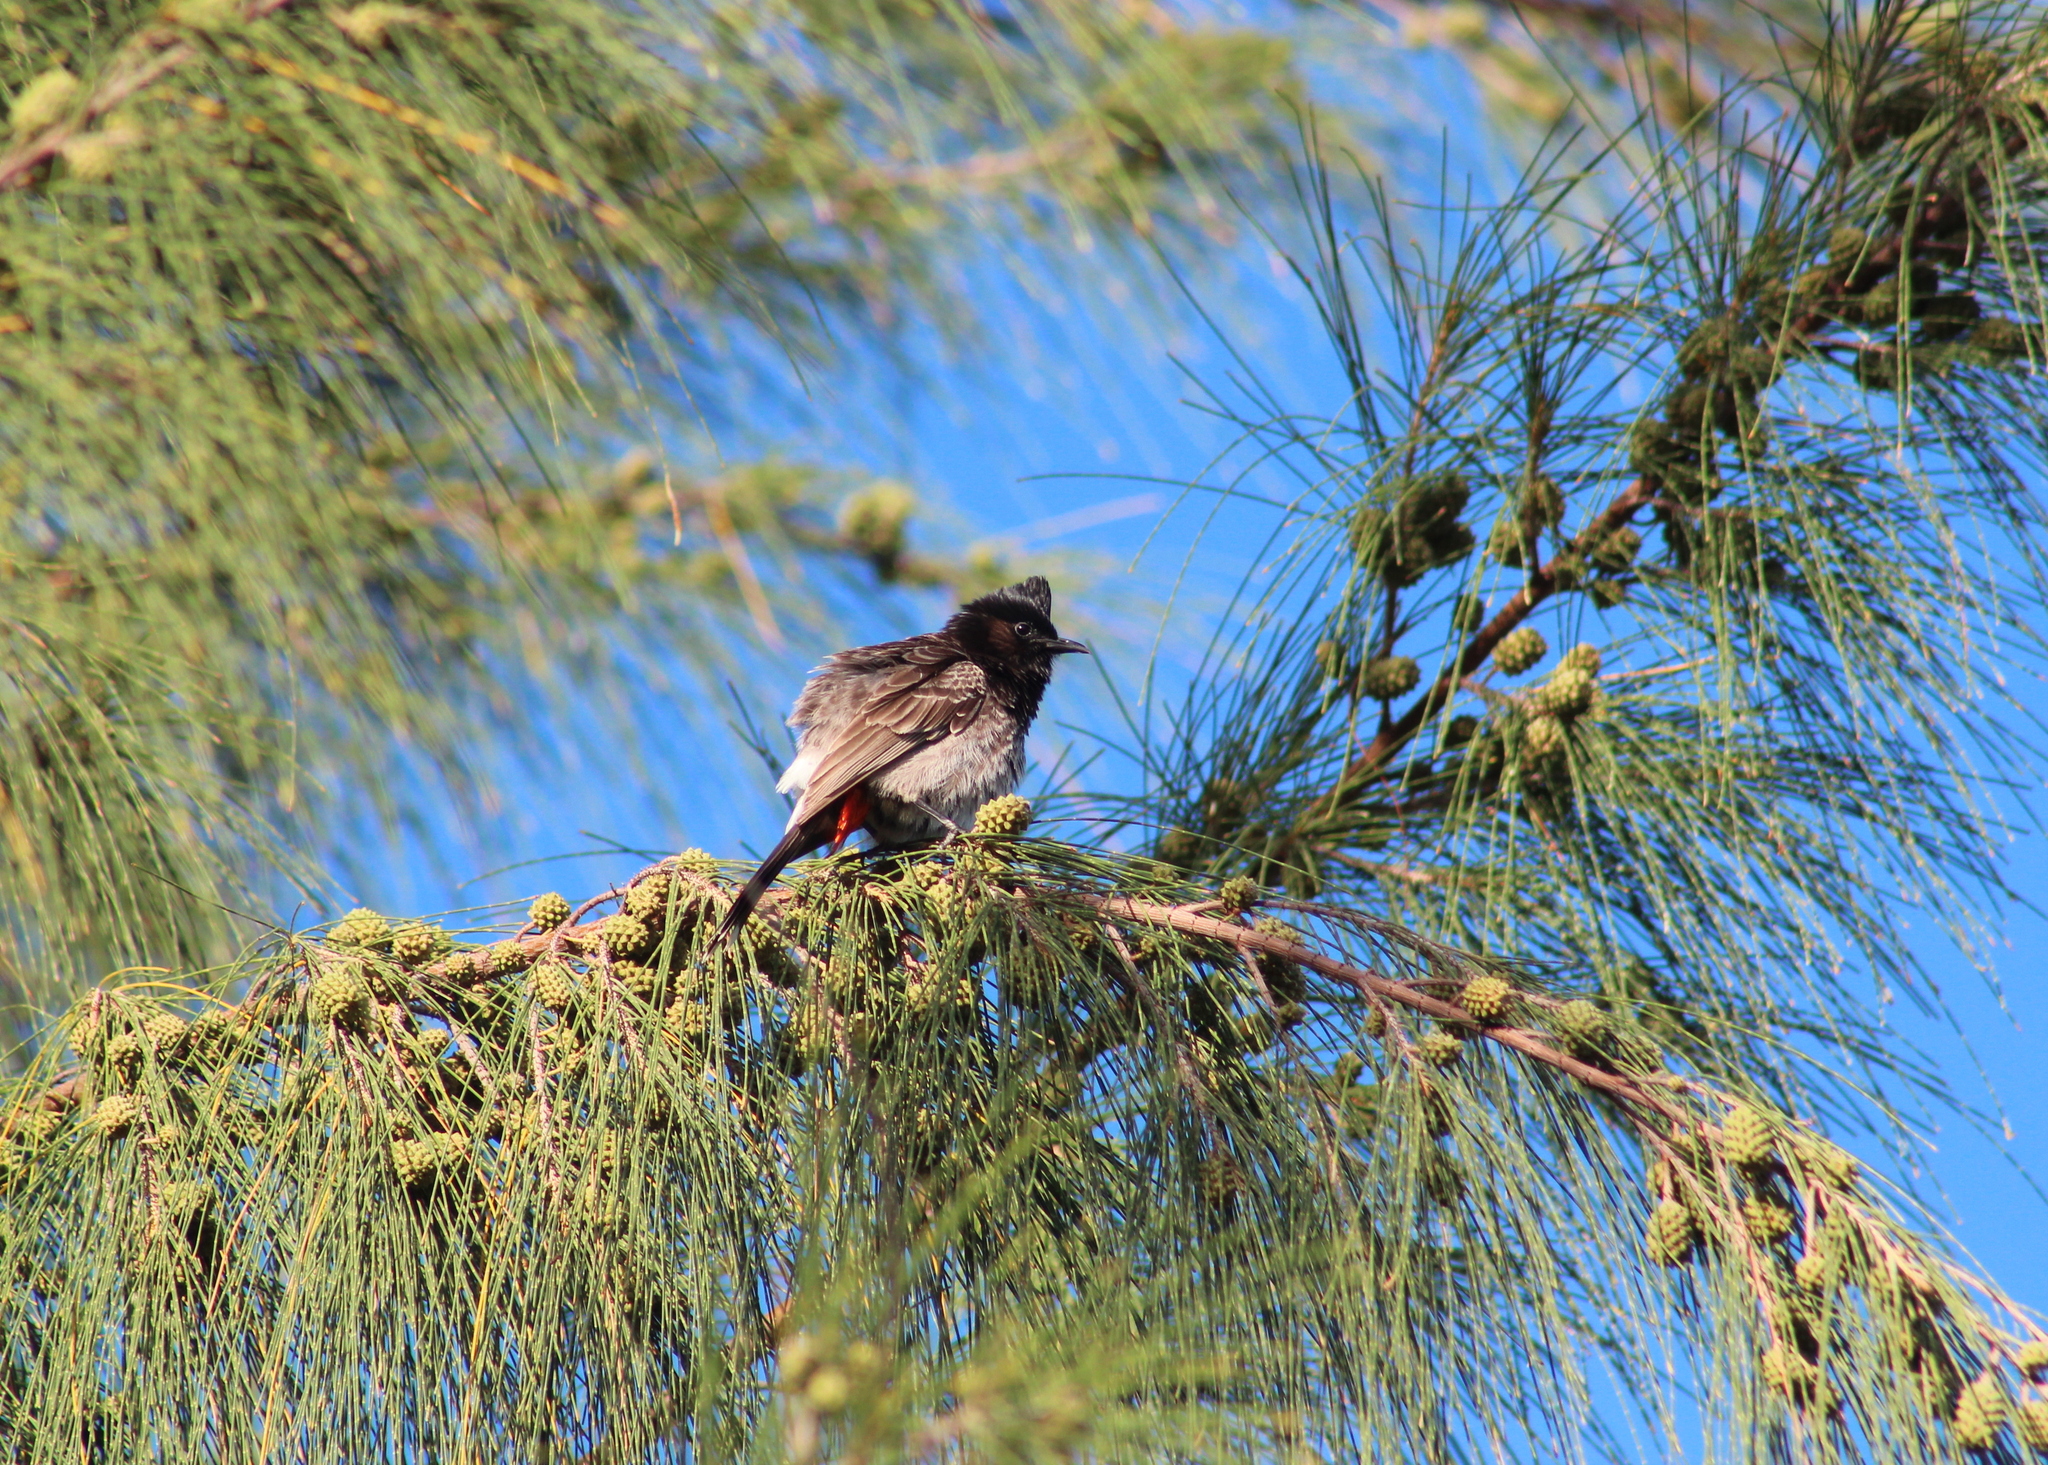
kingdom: Plantae
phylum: Tracheophyta
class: Magnoliopsida
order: Fagales
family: Casuarinaceae
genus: Casuarina
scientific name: Casuarina equisetifolia
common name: Beach sheoak
